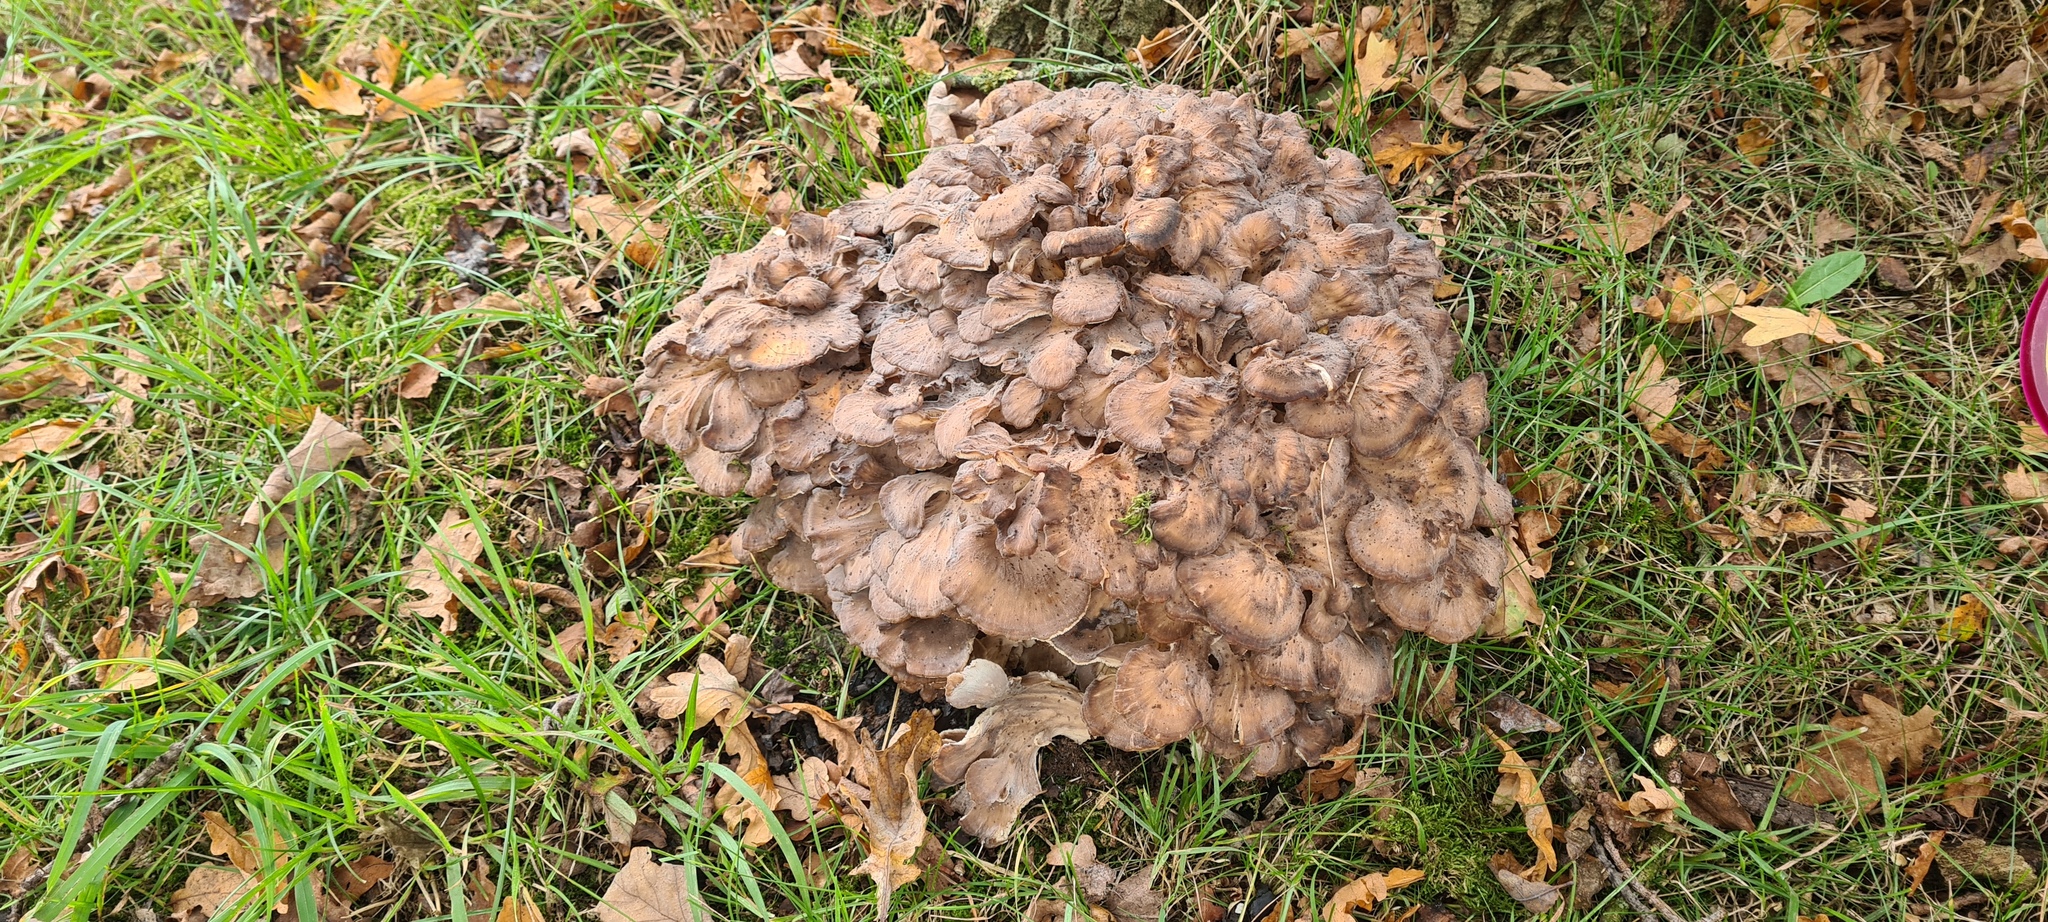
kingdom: Fungi
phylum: Basidiomycota
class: Agaricomycetes
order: Polyporales
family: Grifolaceae
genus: Grifola
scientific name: Grifola frondosa
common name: Hen of the woods
